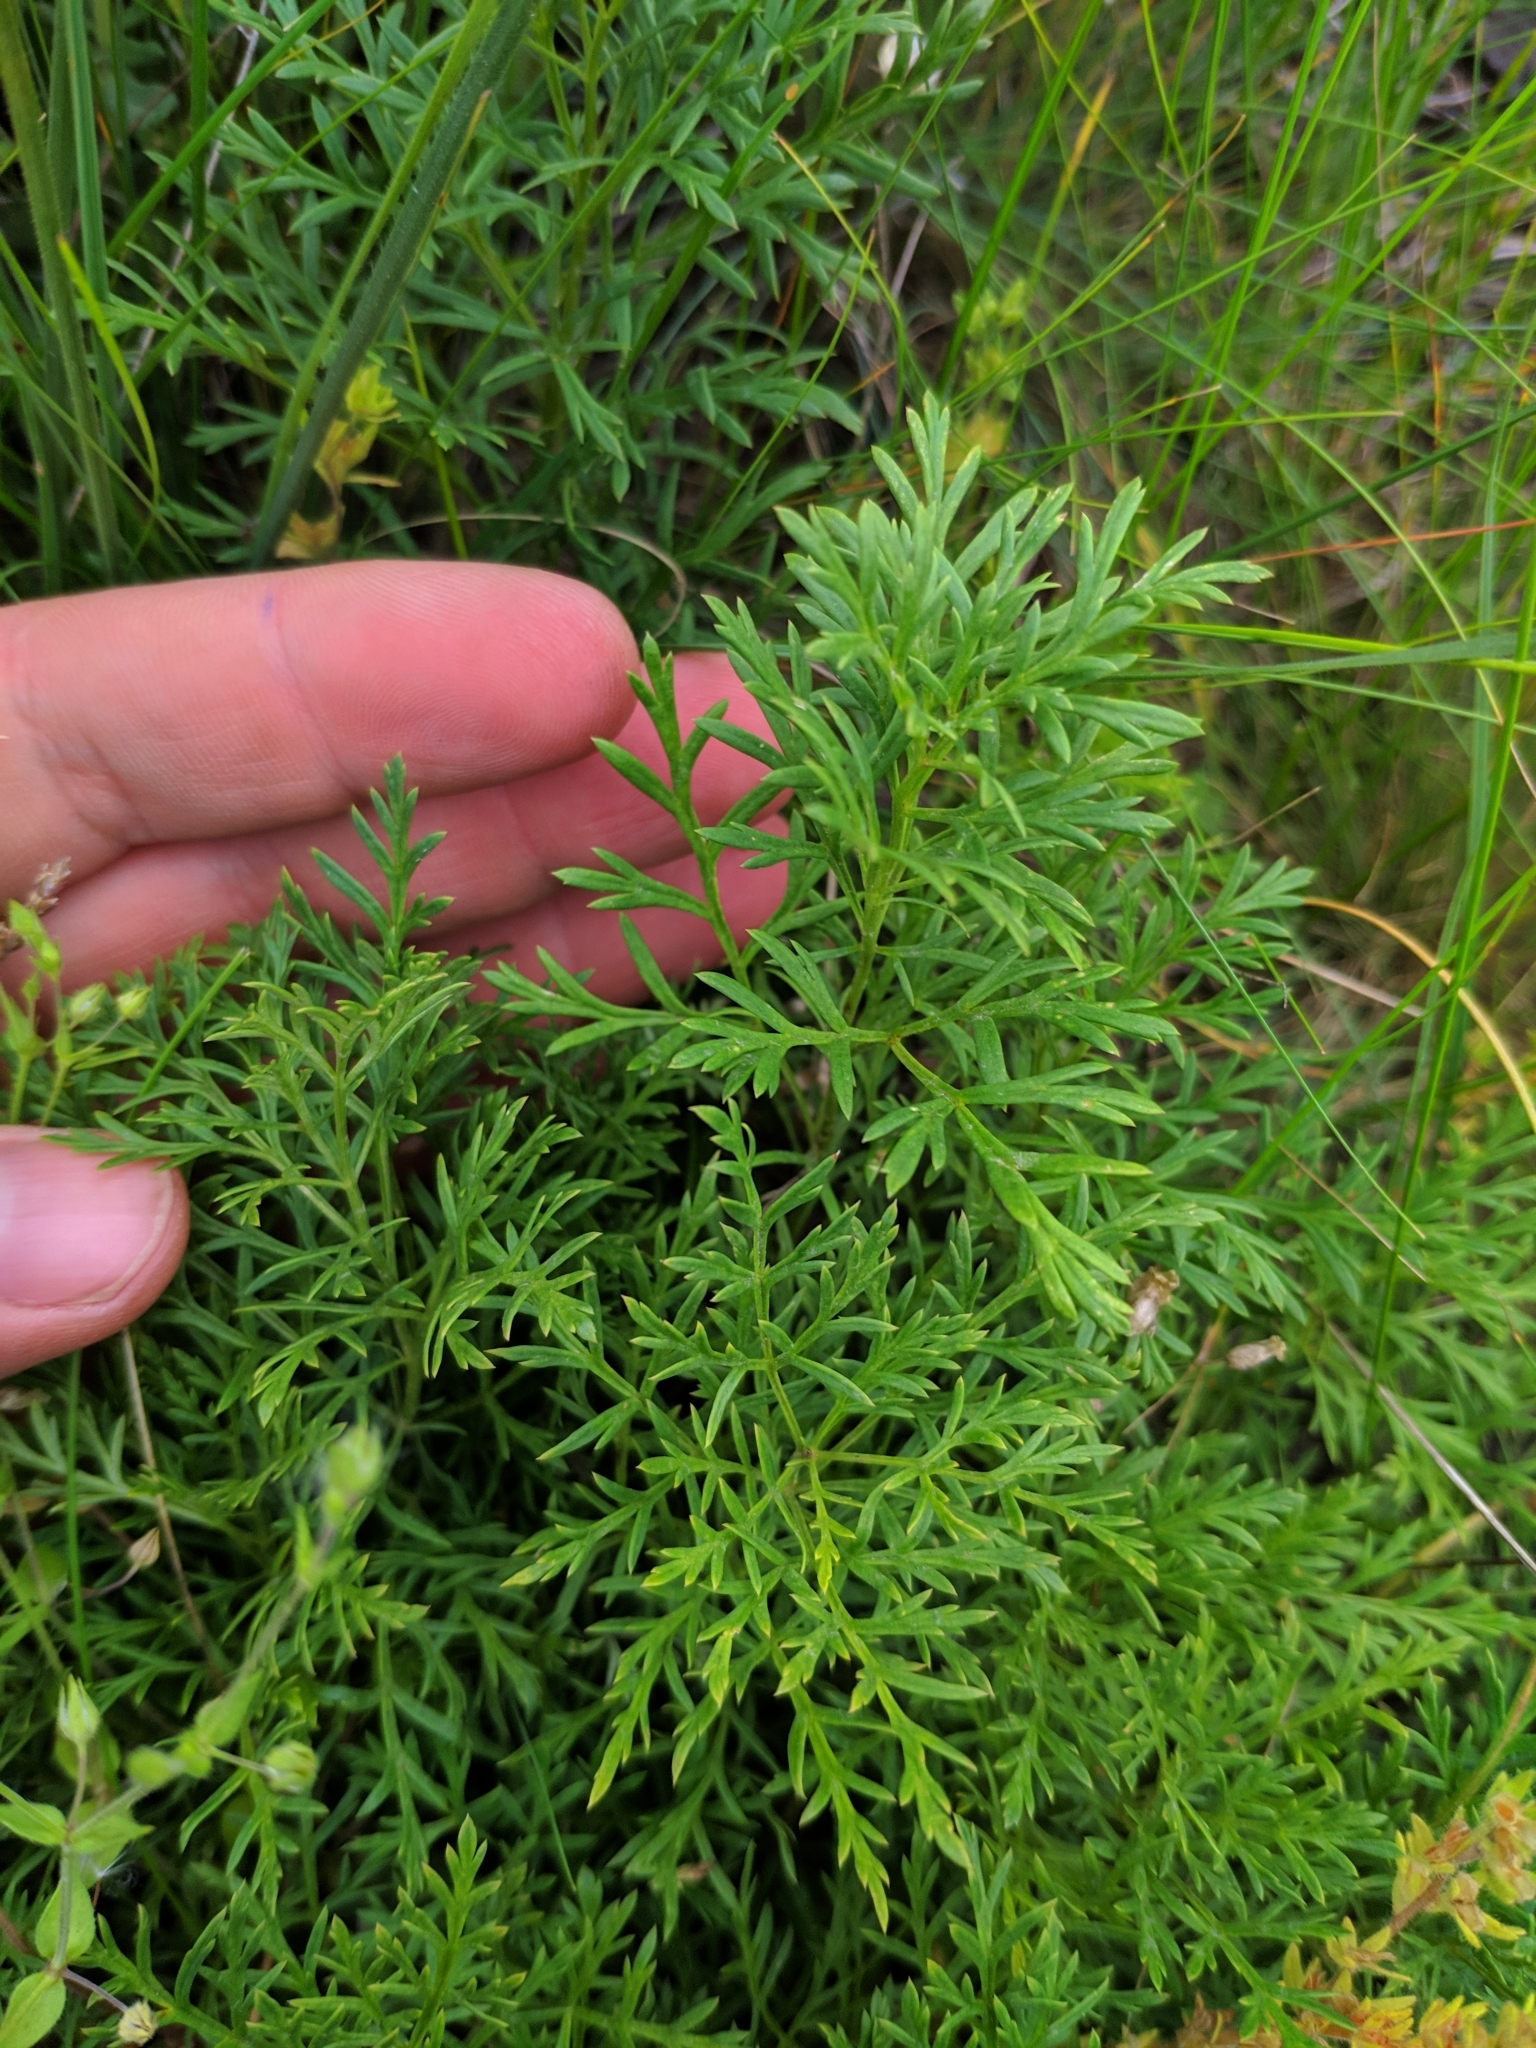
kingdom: Plantae
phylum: Tracheophyta
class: Magnoliopsida
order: Ranunculales
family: Ranunculaceae
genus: Adonis
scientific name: Adonis volgensis
